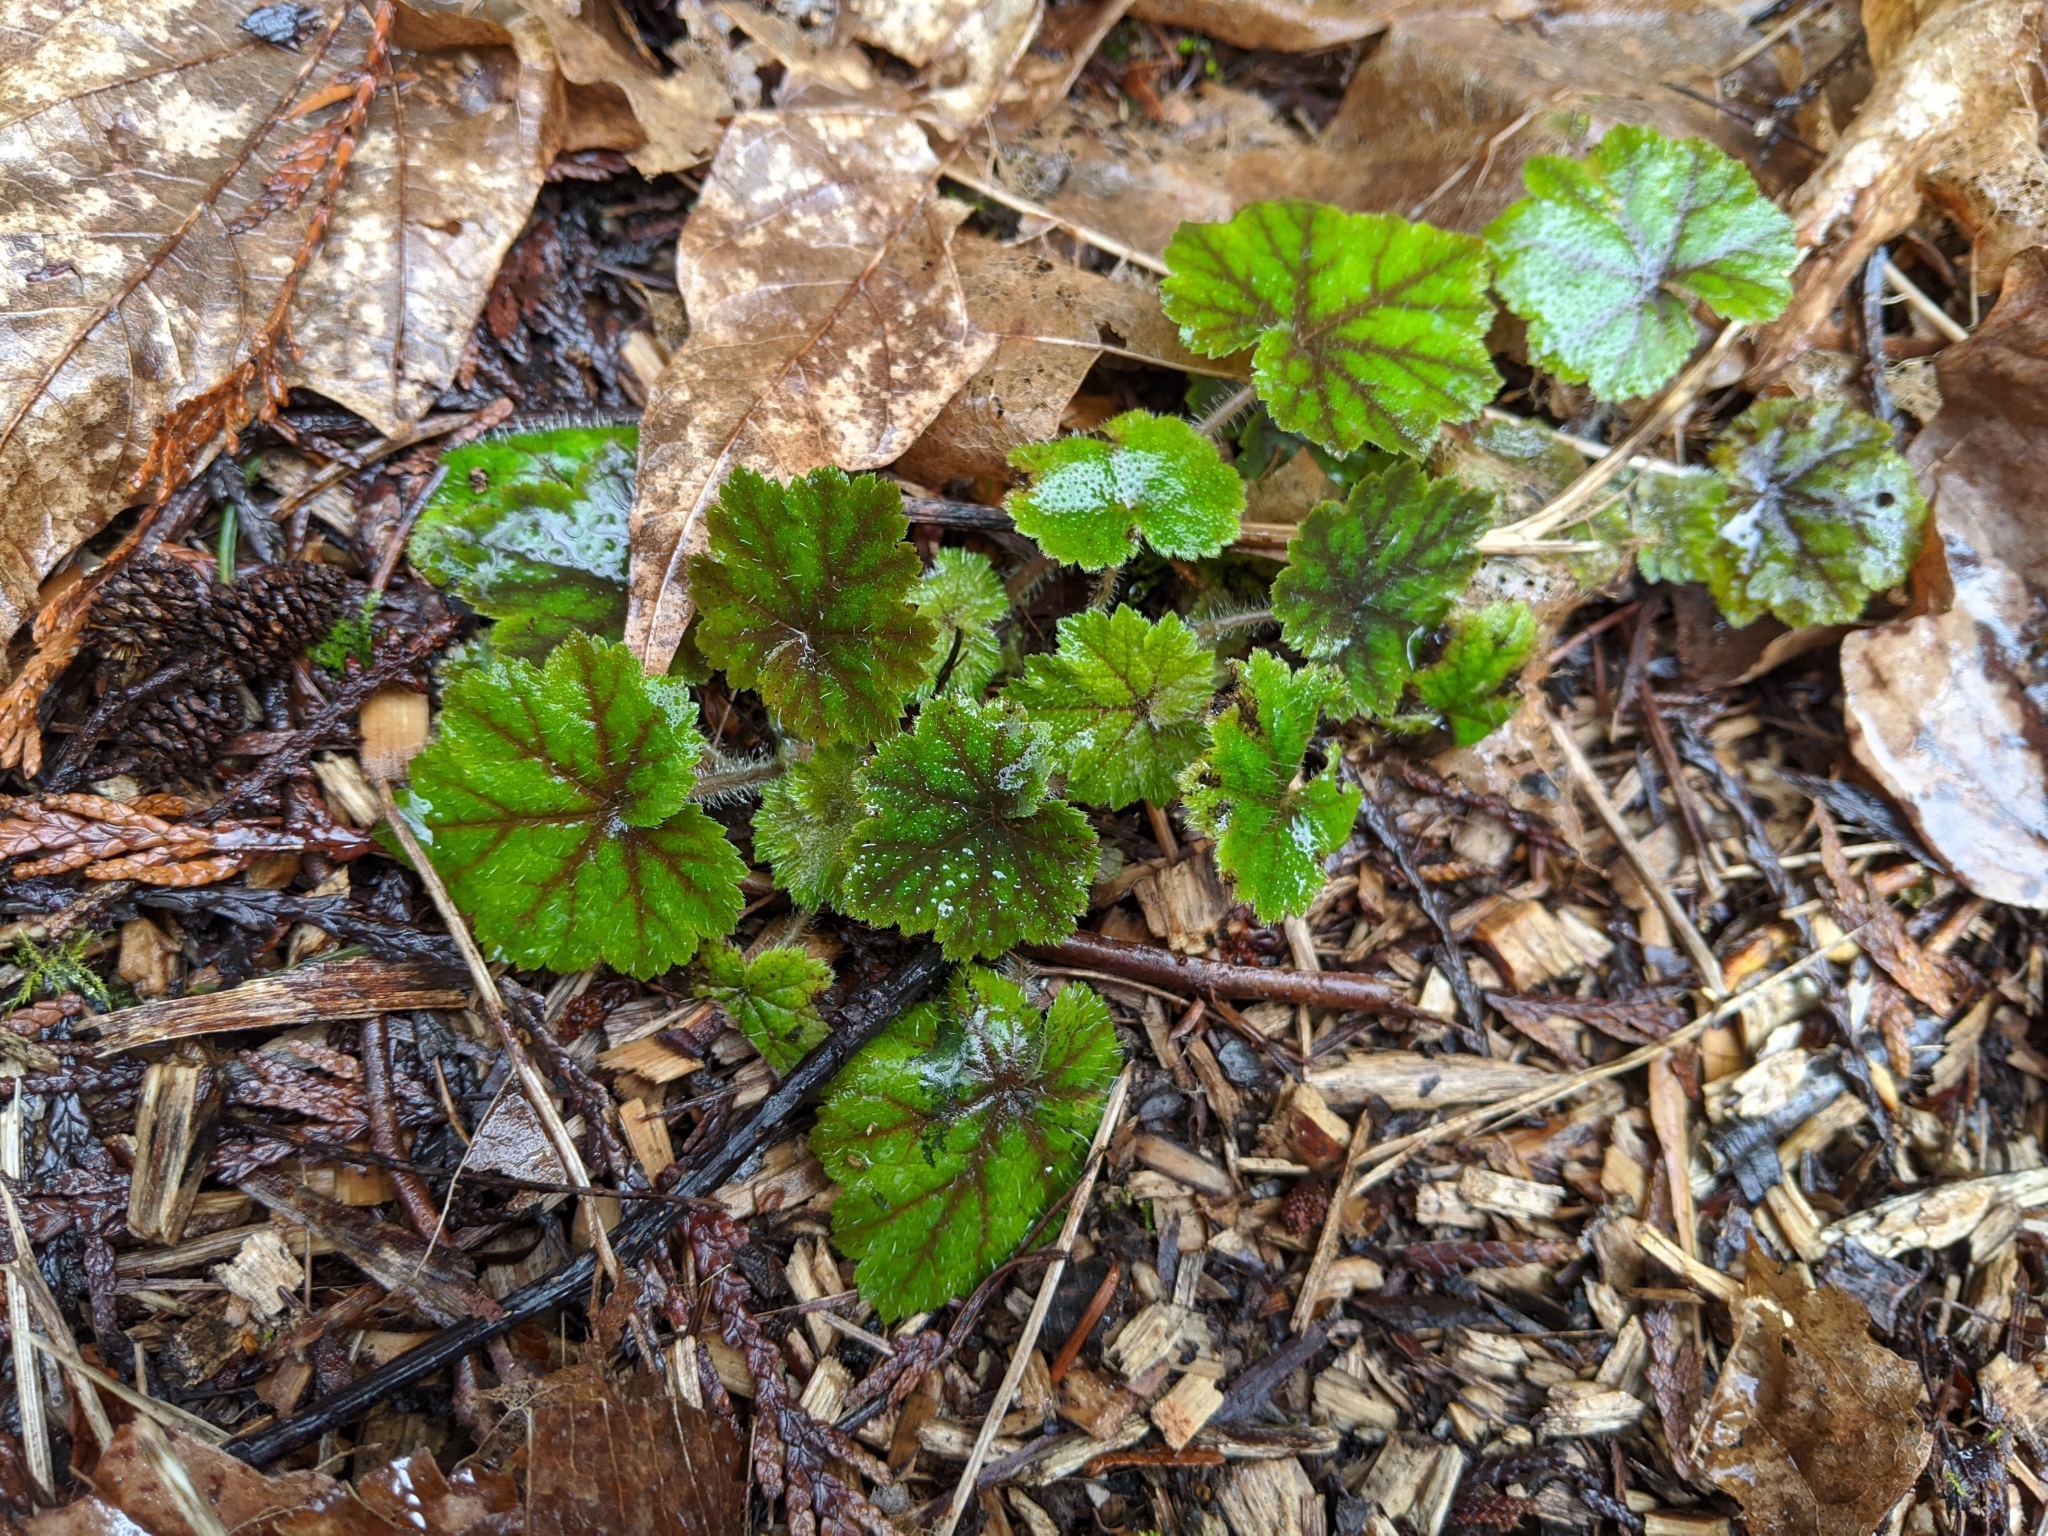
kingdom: Plantae
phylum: Tracheophyta
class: Magnoliopsida
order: Saxifragales
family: Saxifragaceae
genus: Tellima
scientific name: Tellima grandiflora
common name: Fringecups
